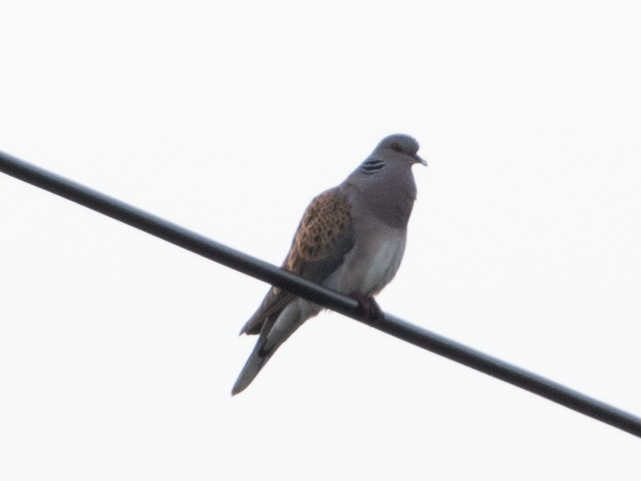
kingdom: Animalia
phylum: Chordata
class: Aves
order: Columbiformes
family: Columbidae
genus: Streptopelia
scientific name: Streptopelia turtur
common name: European turtle dove
